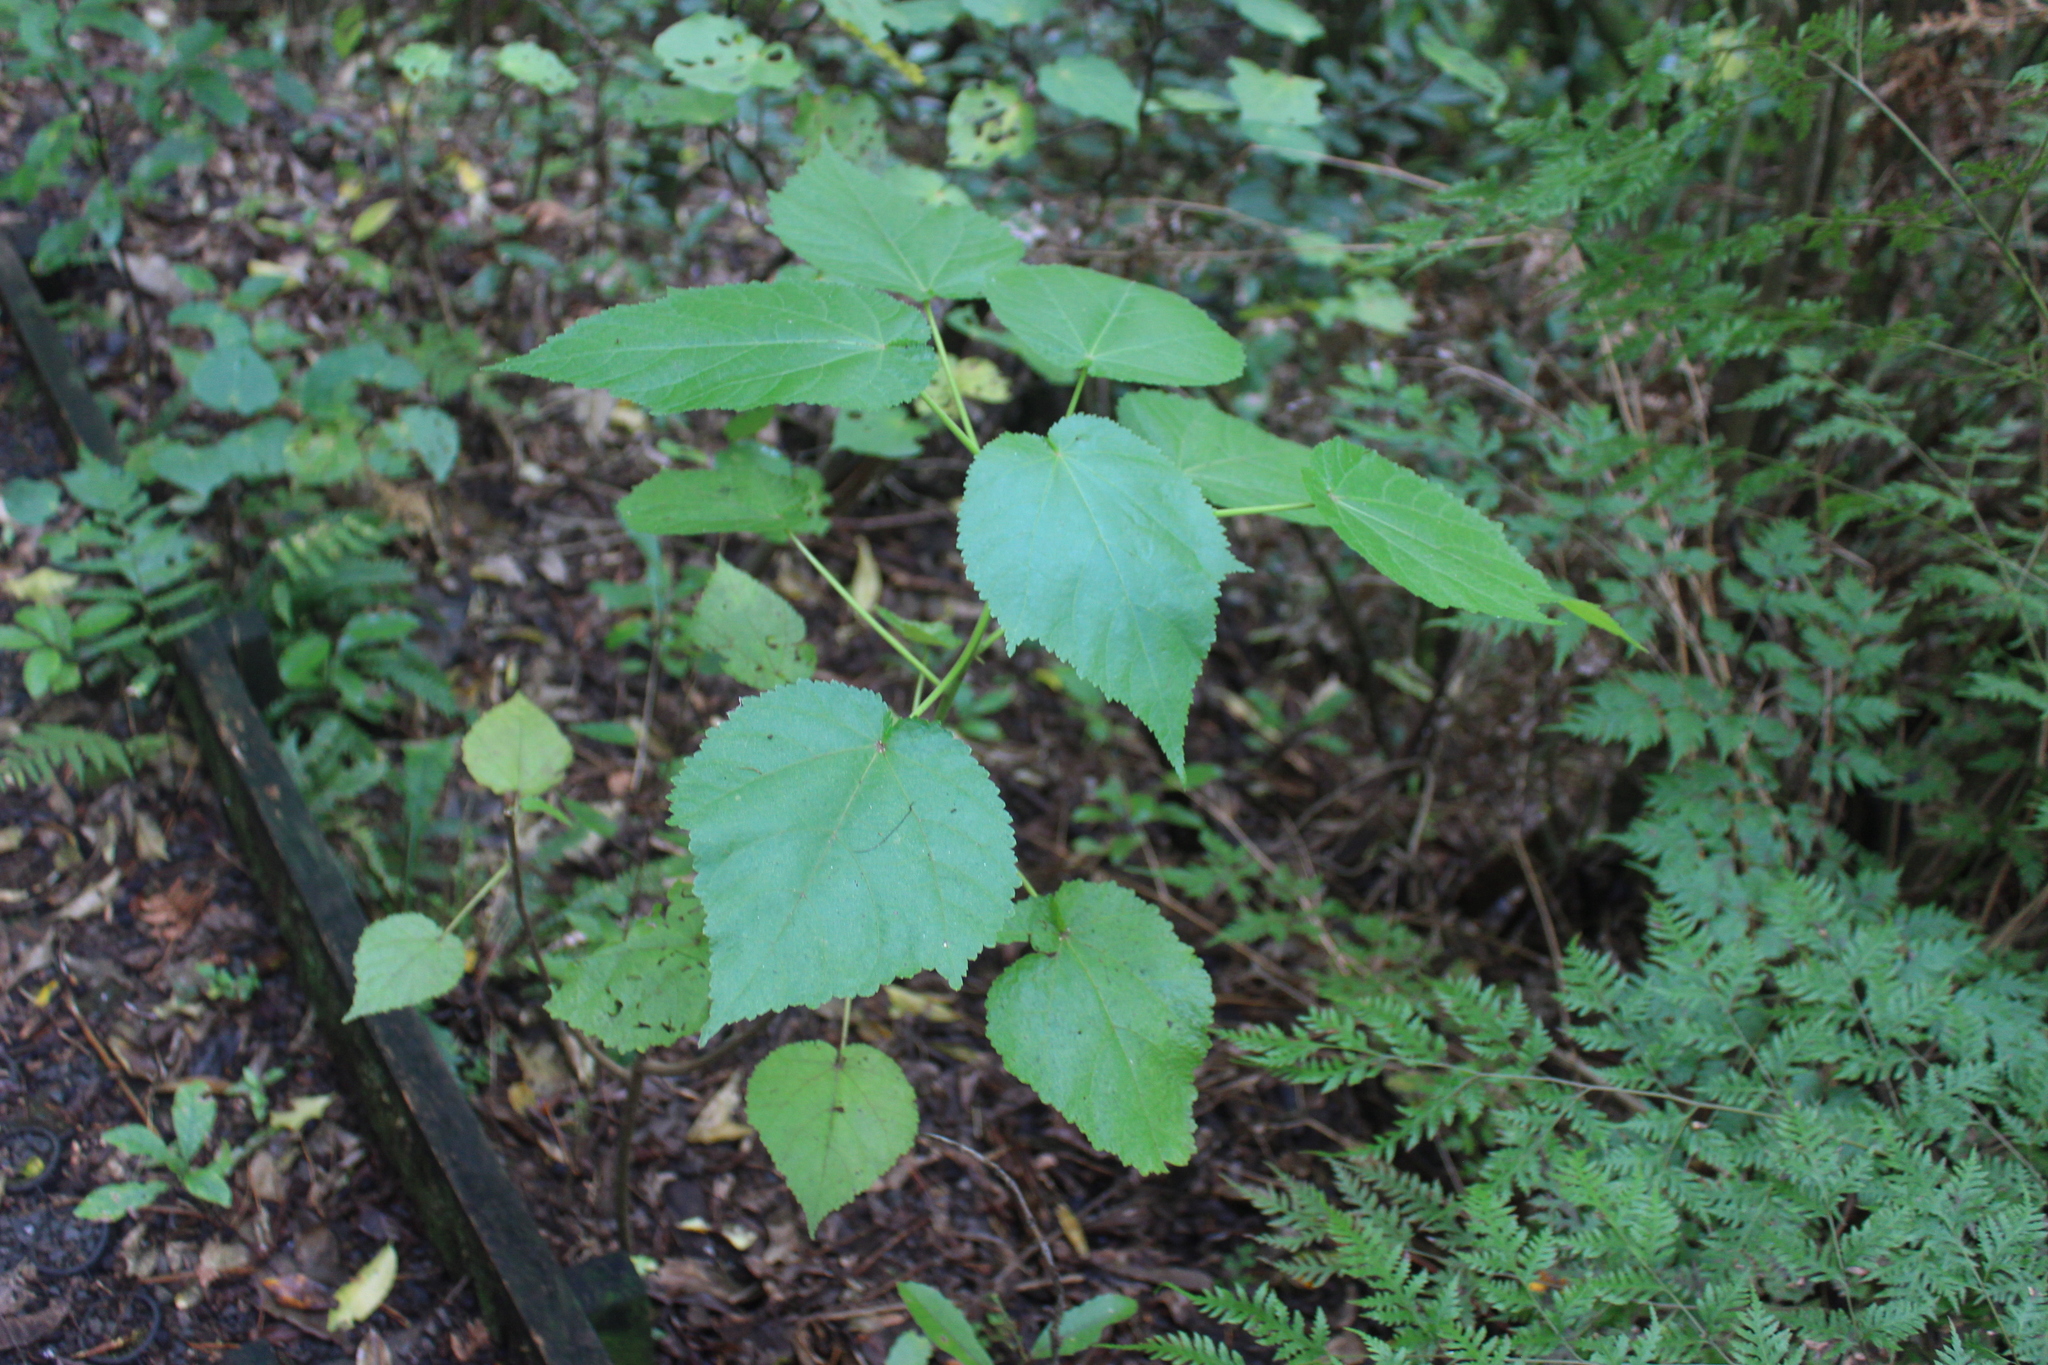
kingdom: Plantae
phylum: Tracheophyta
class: Magnoliopsida
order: Malvales
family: Malvaceae
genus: Entelea
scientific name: Entelea arborescens
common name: New zealand-mulberry
